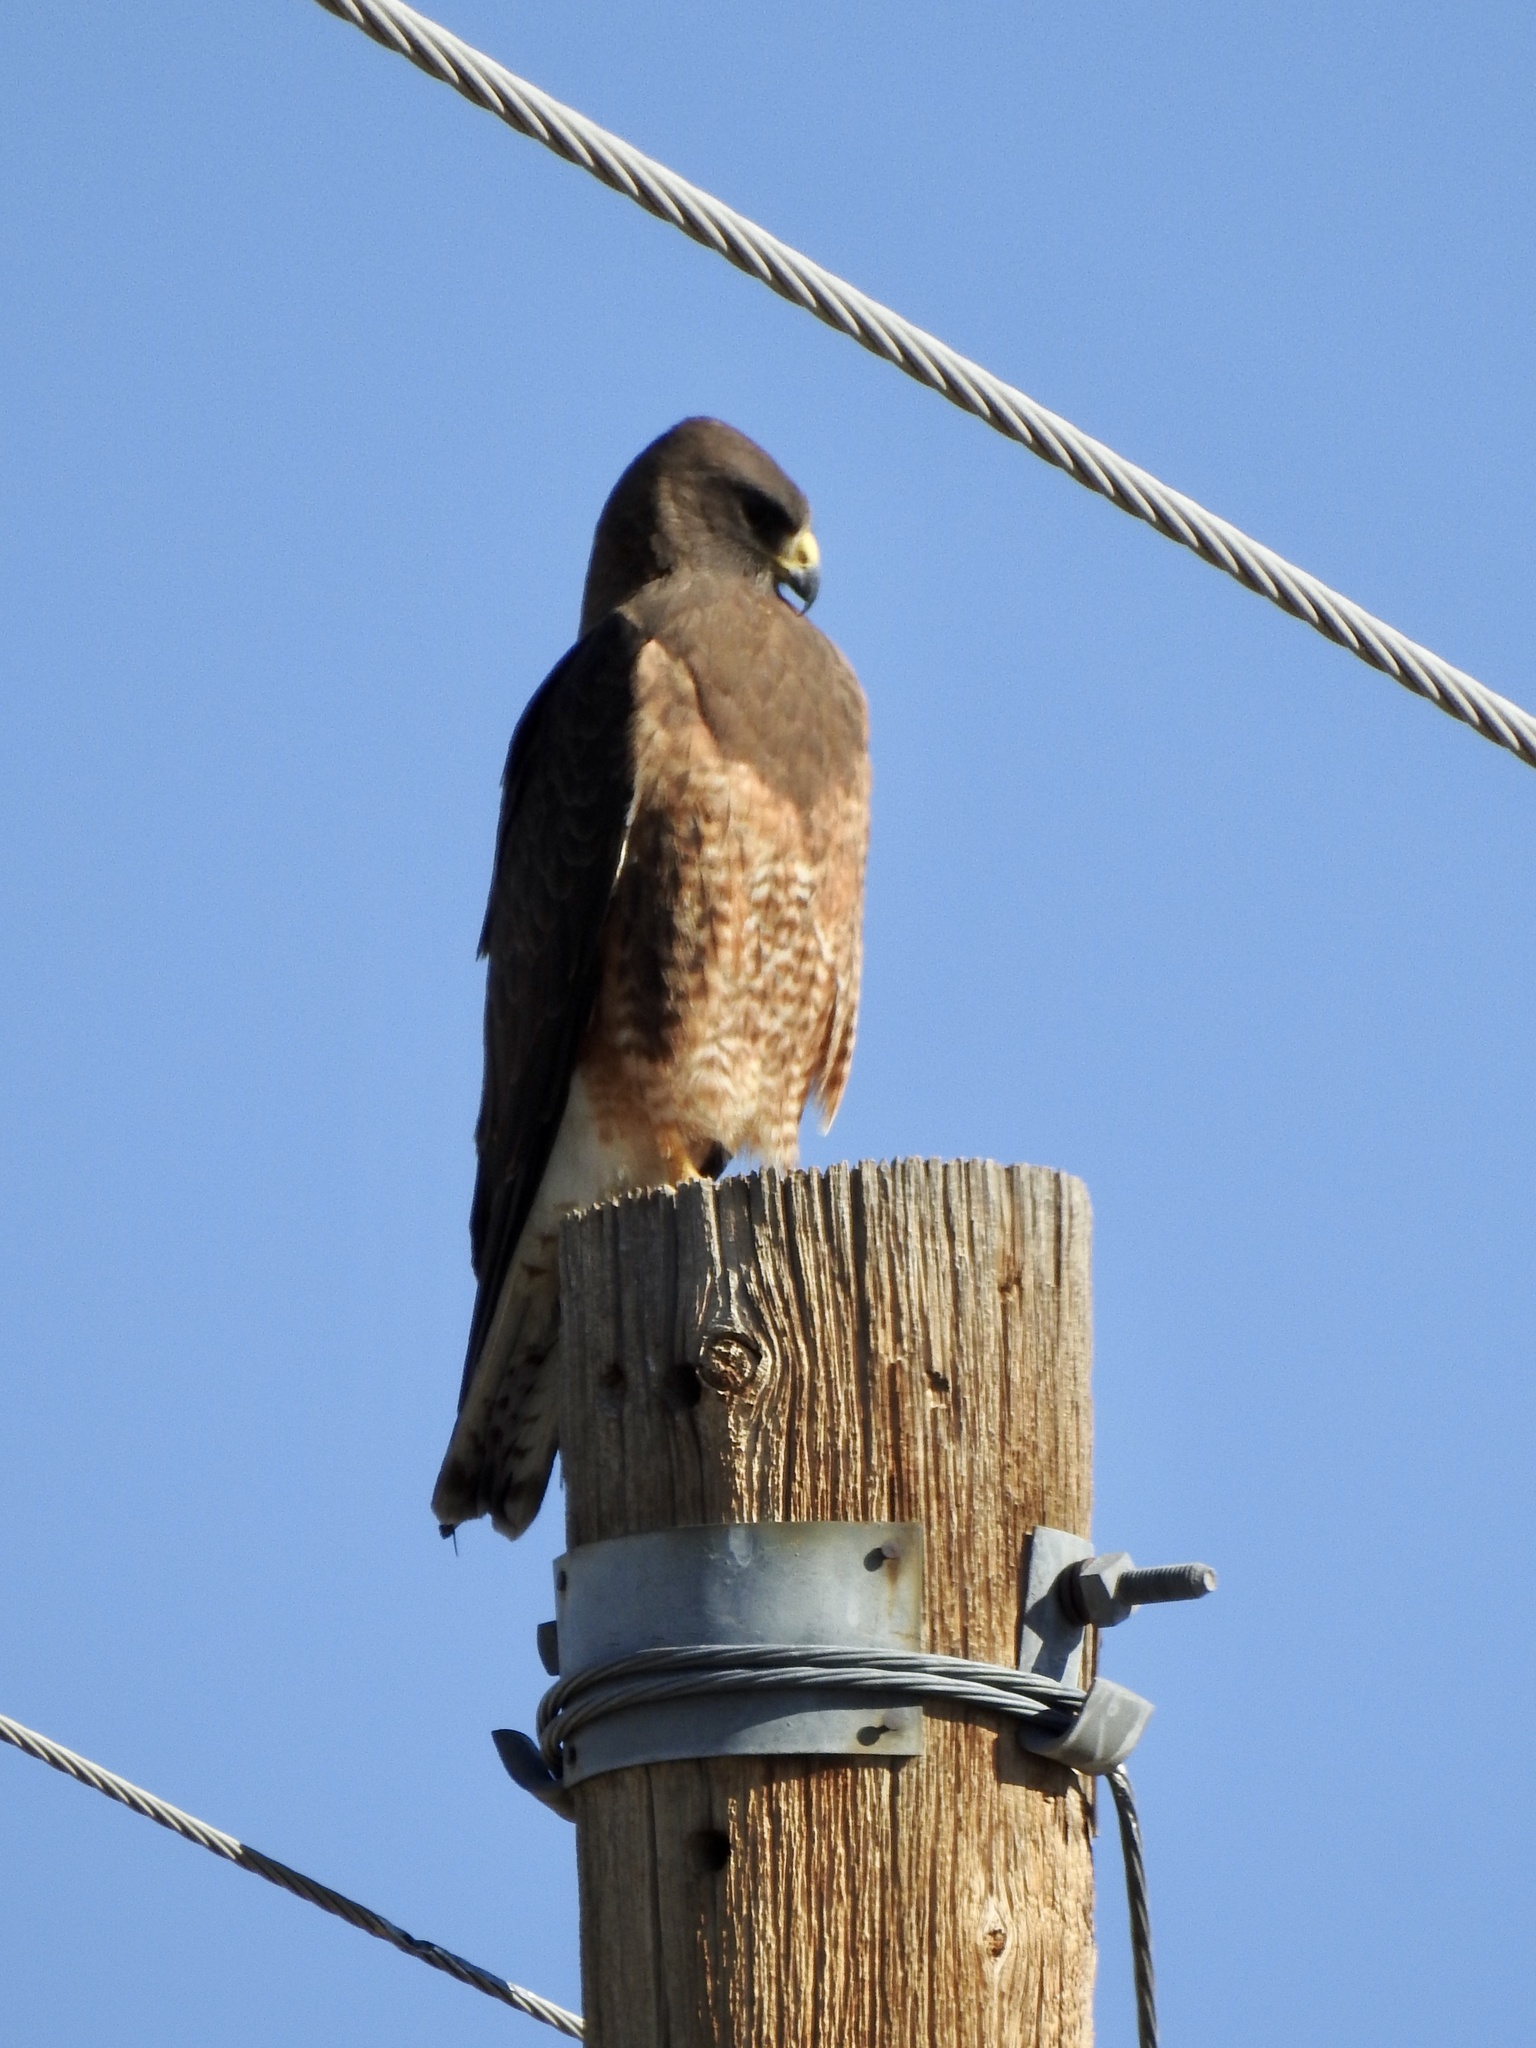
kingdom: Animalia
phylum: Chordata
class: Aves
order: Accipitriformes
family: Accipitridae
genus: Buteo
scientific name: Buteo swainsoni
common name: Swainson's hawk
